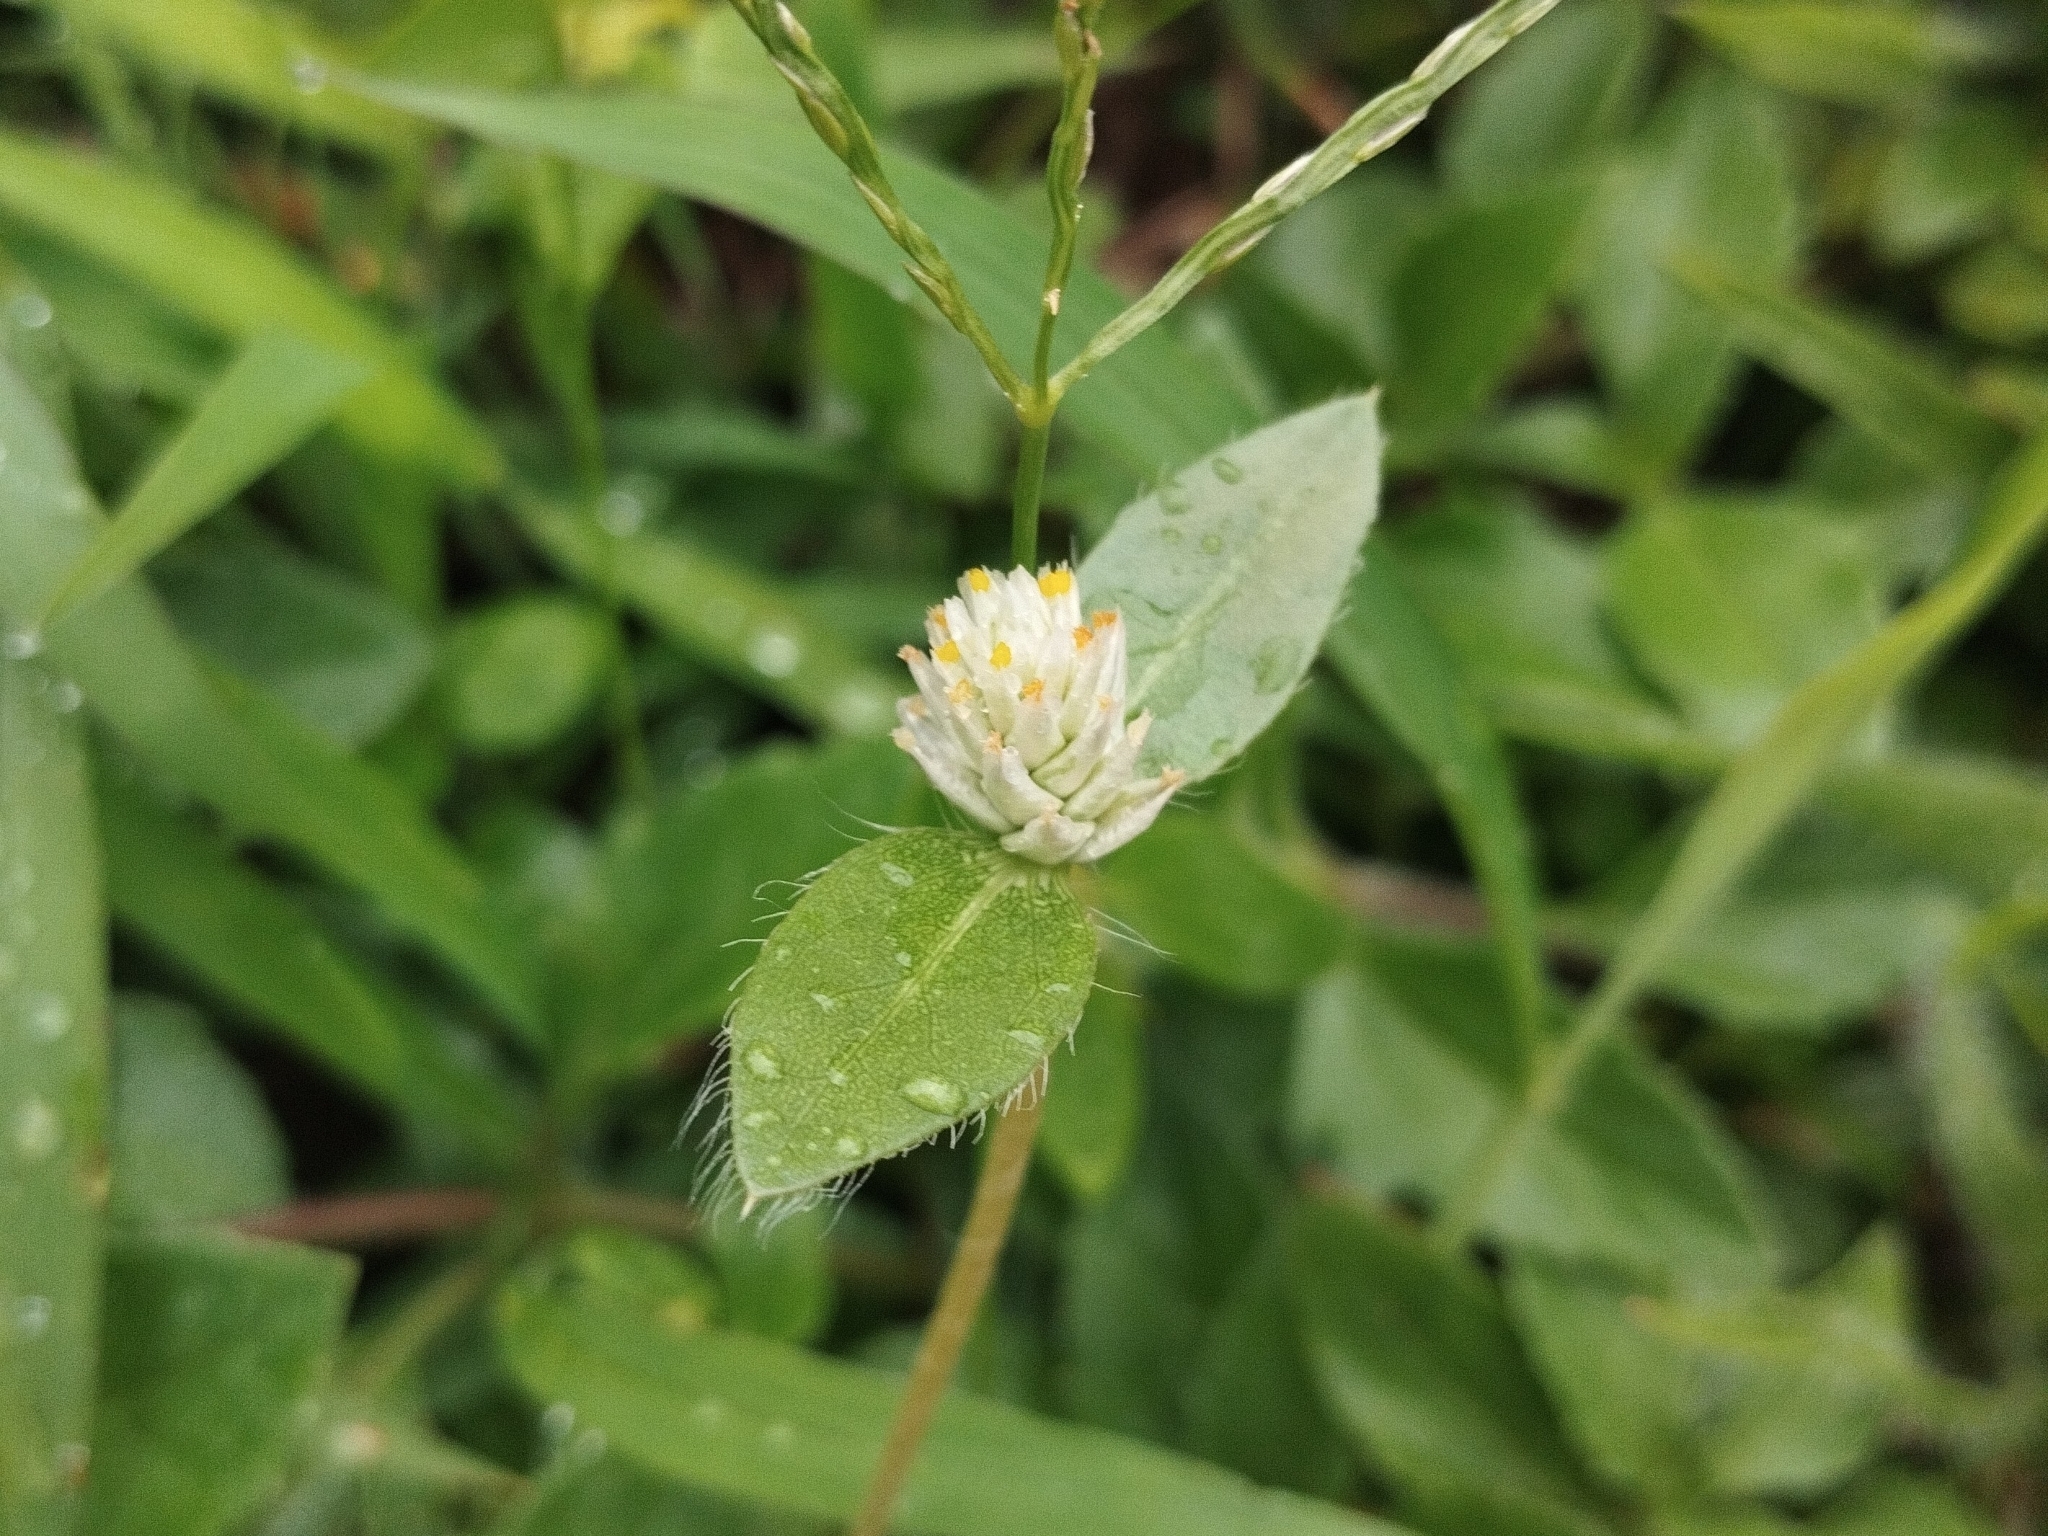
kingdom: Plantae
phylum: Tracheophyta
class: Magnoliopsida
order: Caryophyllales
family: Amaranthaceae
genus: Gomphrena
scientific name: Gomphrena celosioides
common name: Gomphrena-weed
